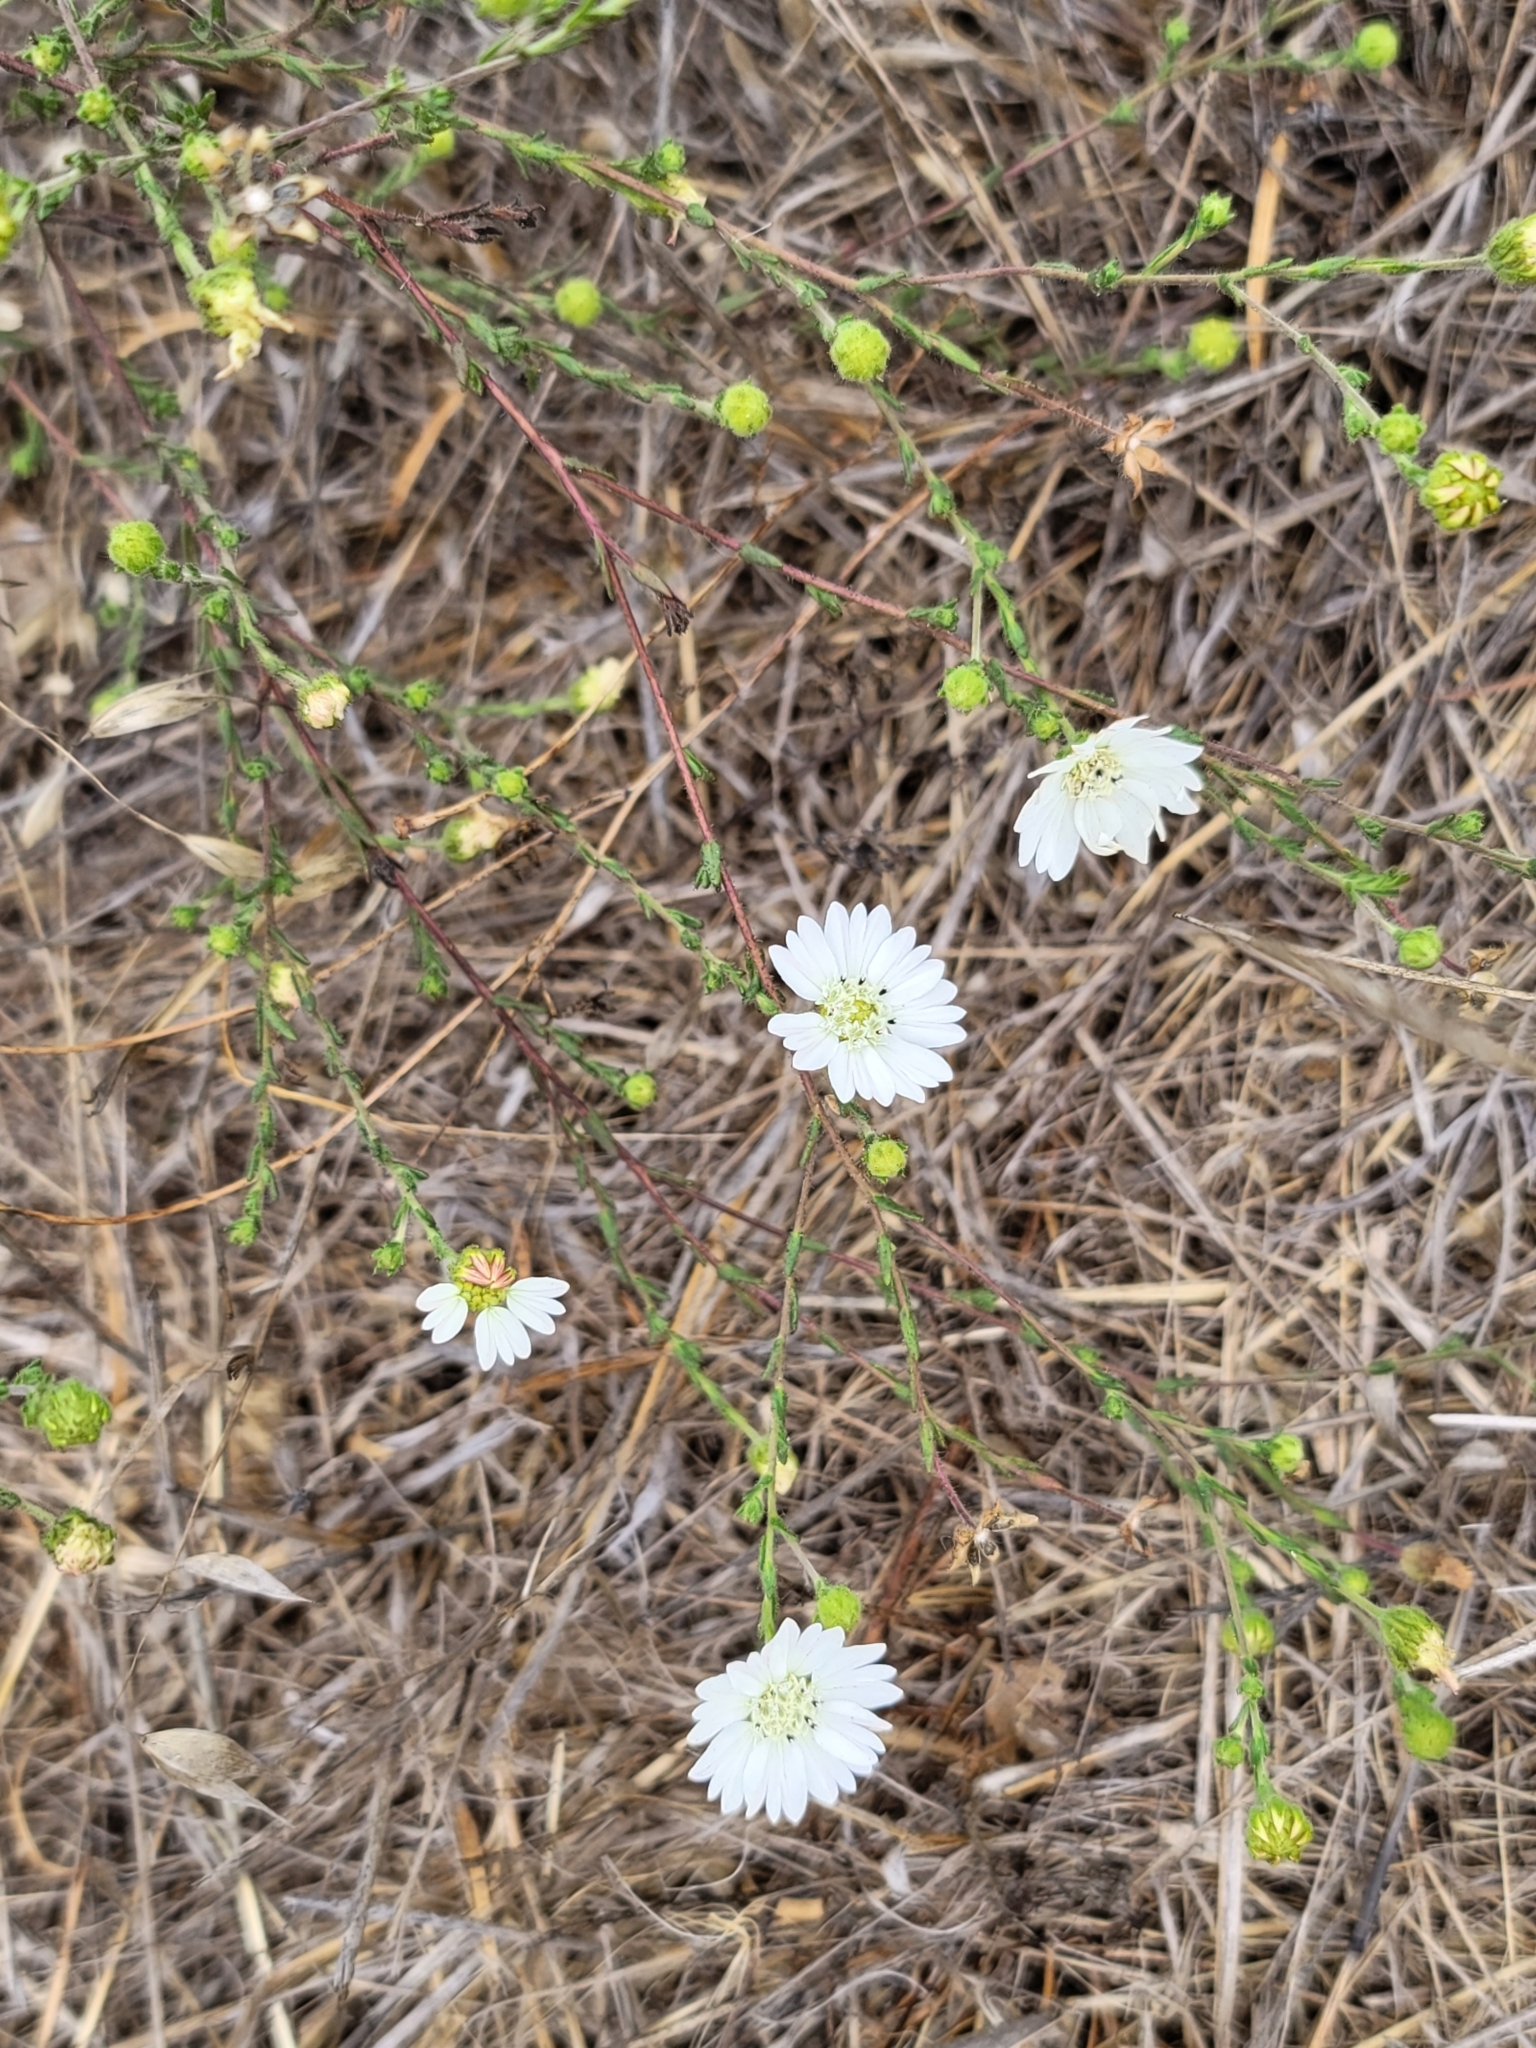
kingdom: Plantae
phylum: Tracheophyta
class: Magnoliopsida
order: Asterales
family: Asteraceae
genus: Hemizonia
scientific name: Hemizonia congesta
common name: Hayfield tarweed
